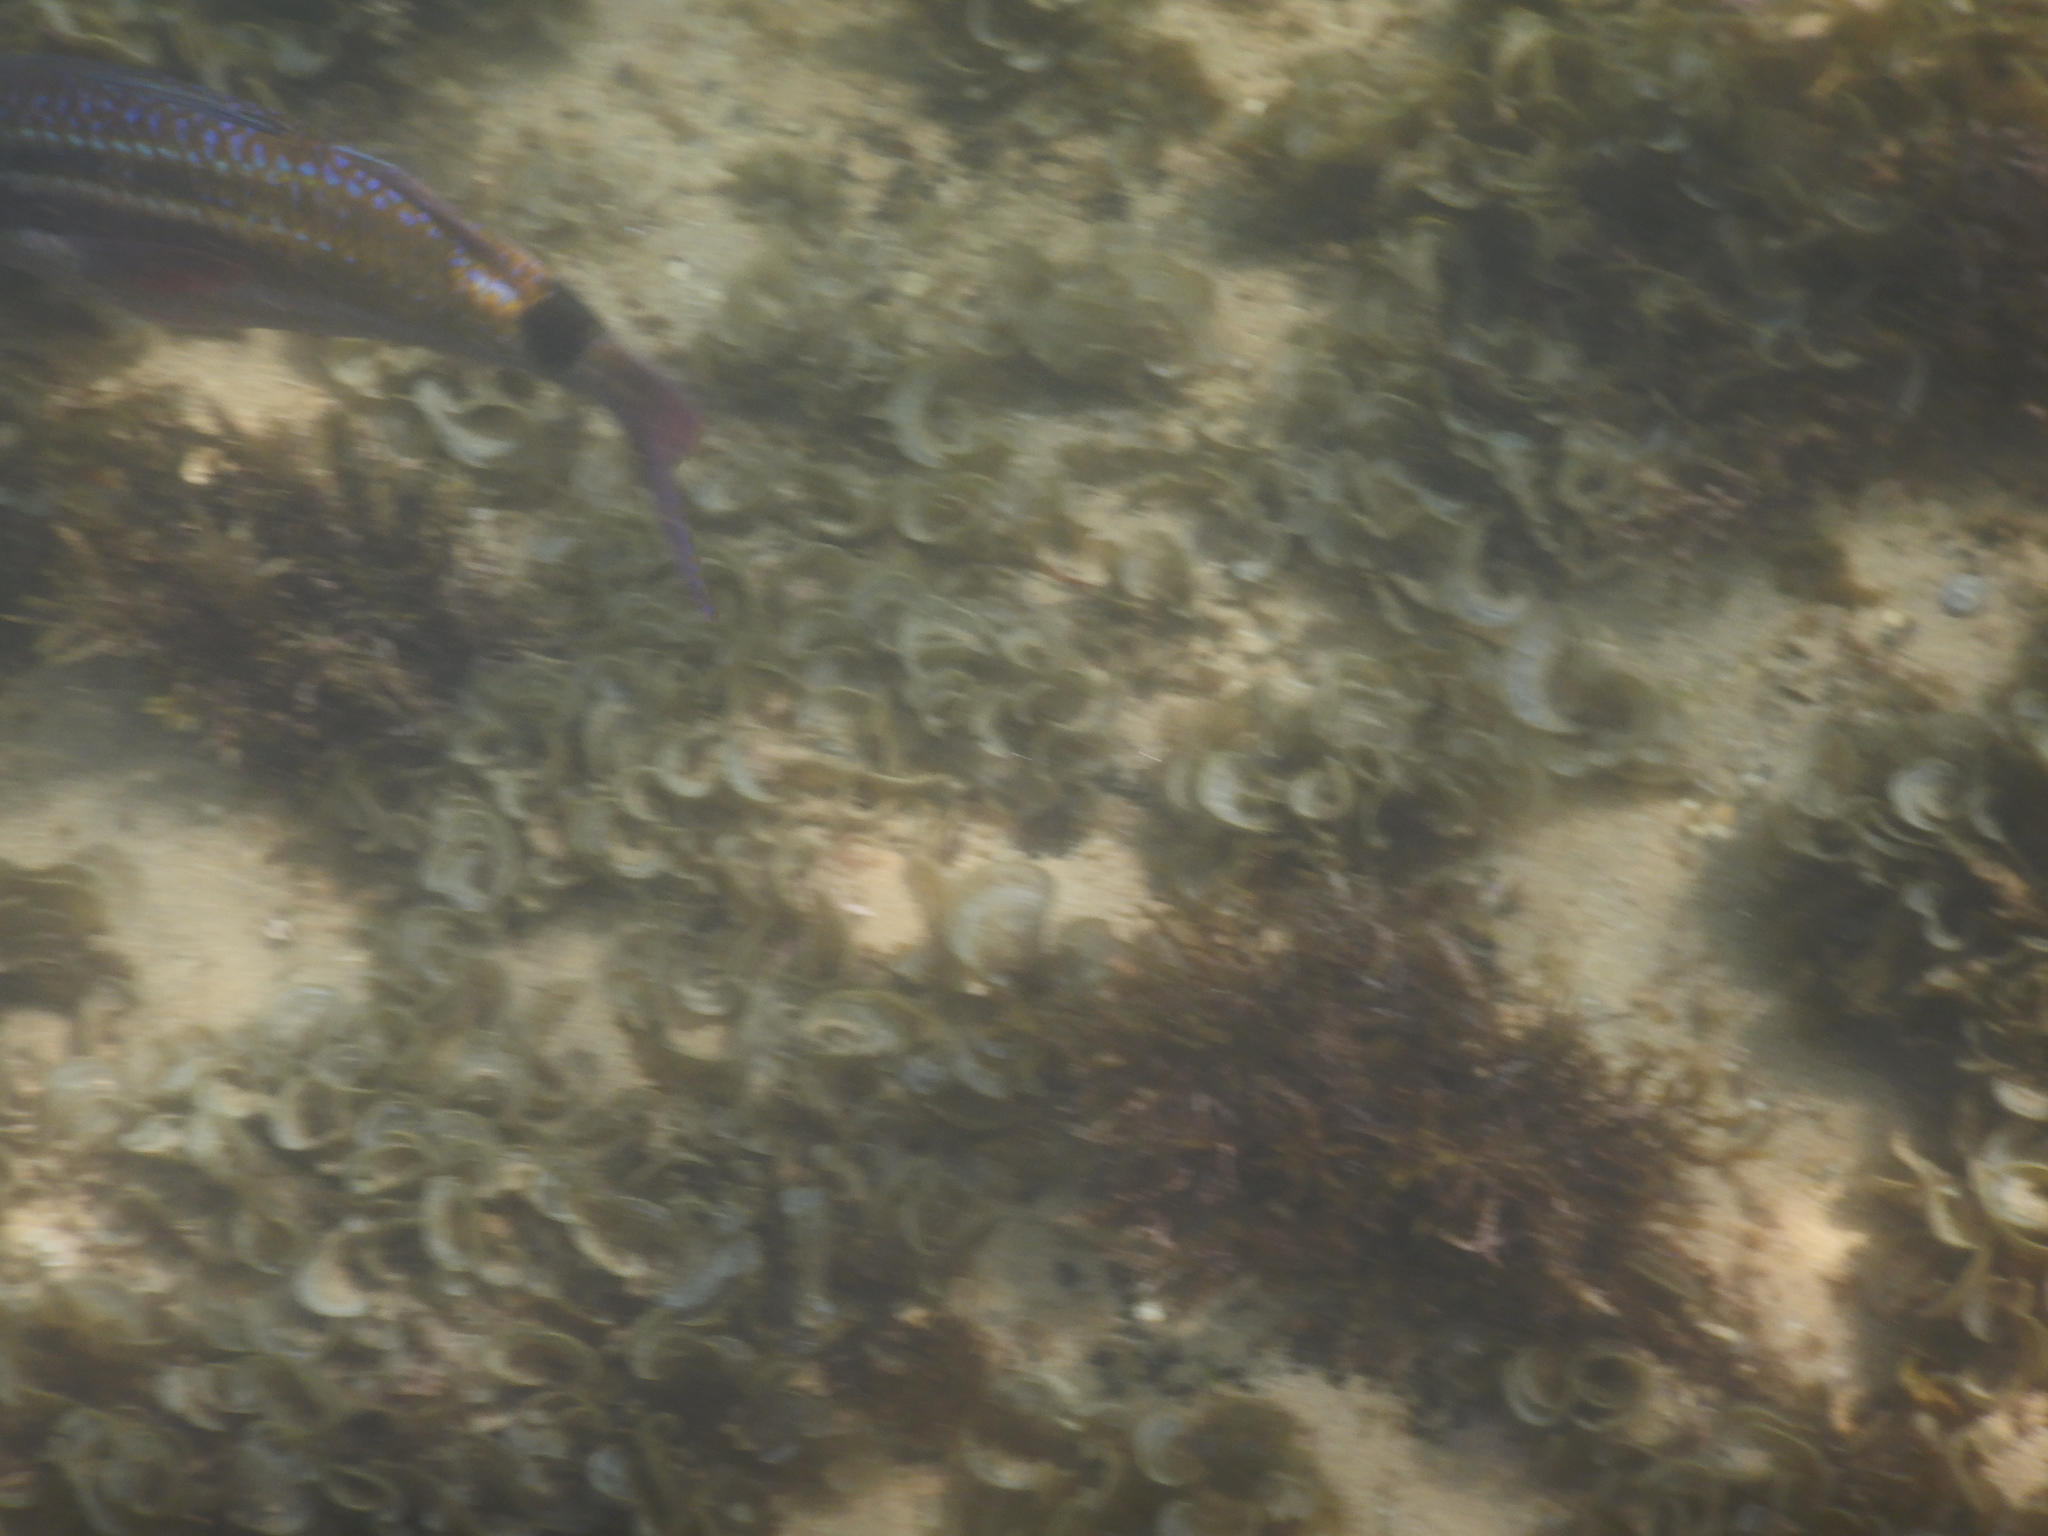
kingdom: Animalia
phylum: Chordata
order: Perciformes
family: Mullidae
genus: Parupeneus
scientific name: Parupeneus spilurus
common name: Blackspot goatfish
